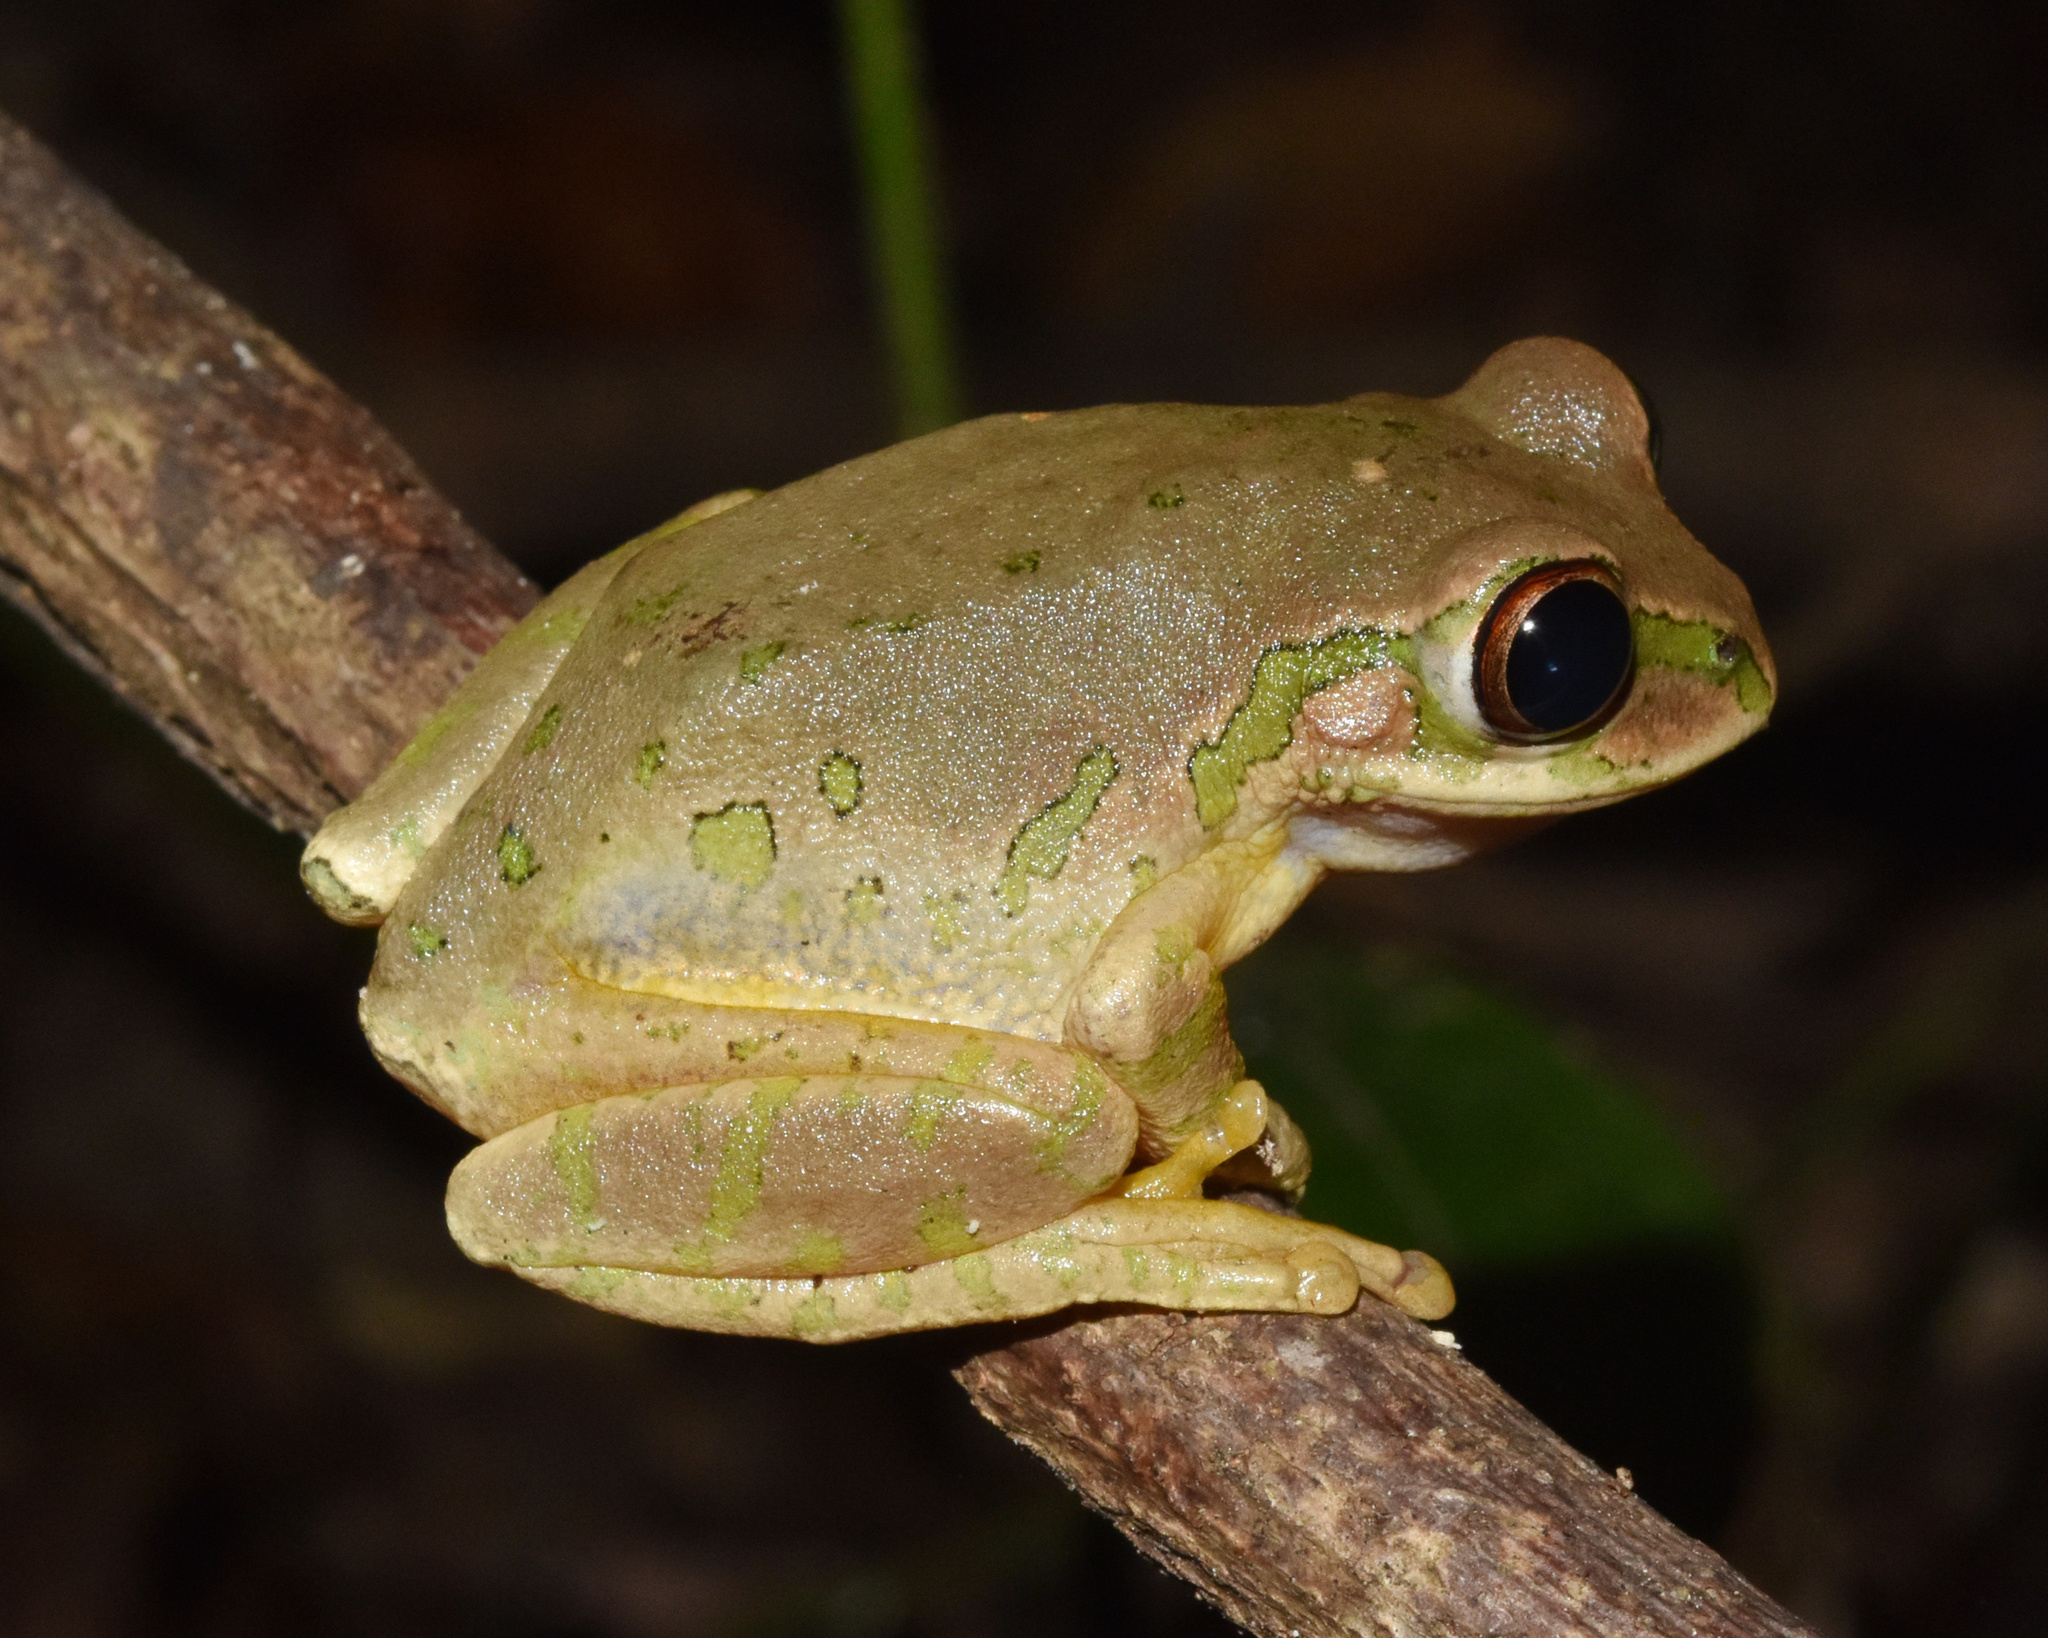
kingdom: Animalia
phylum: Chordata
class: Amphibia
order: Anura
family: Arthroleptidae
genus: Leptopelis
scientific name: Leptopelis natalensis
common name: Natal tree frog
